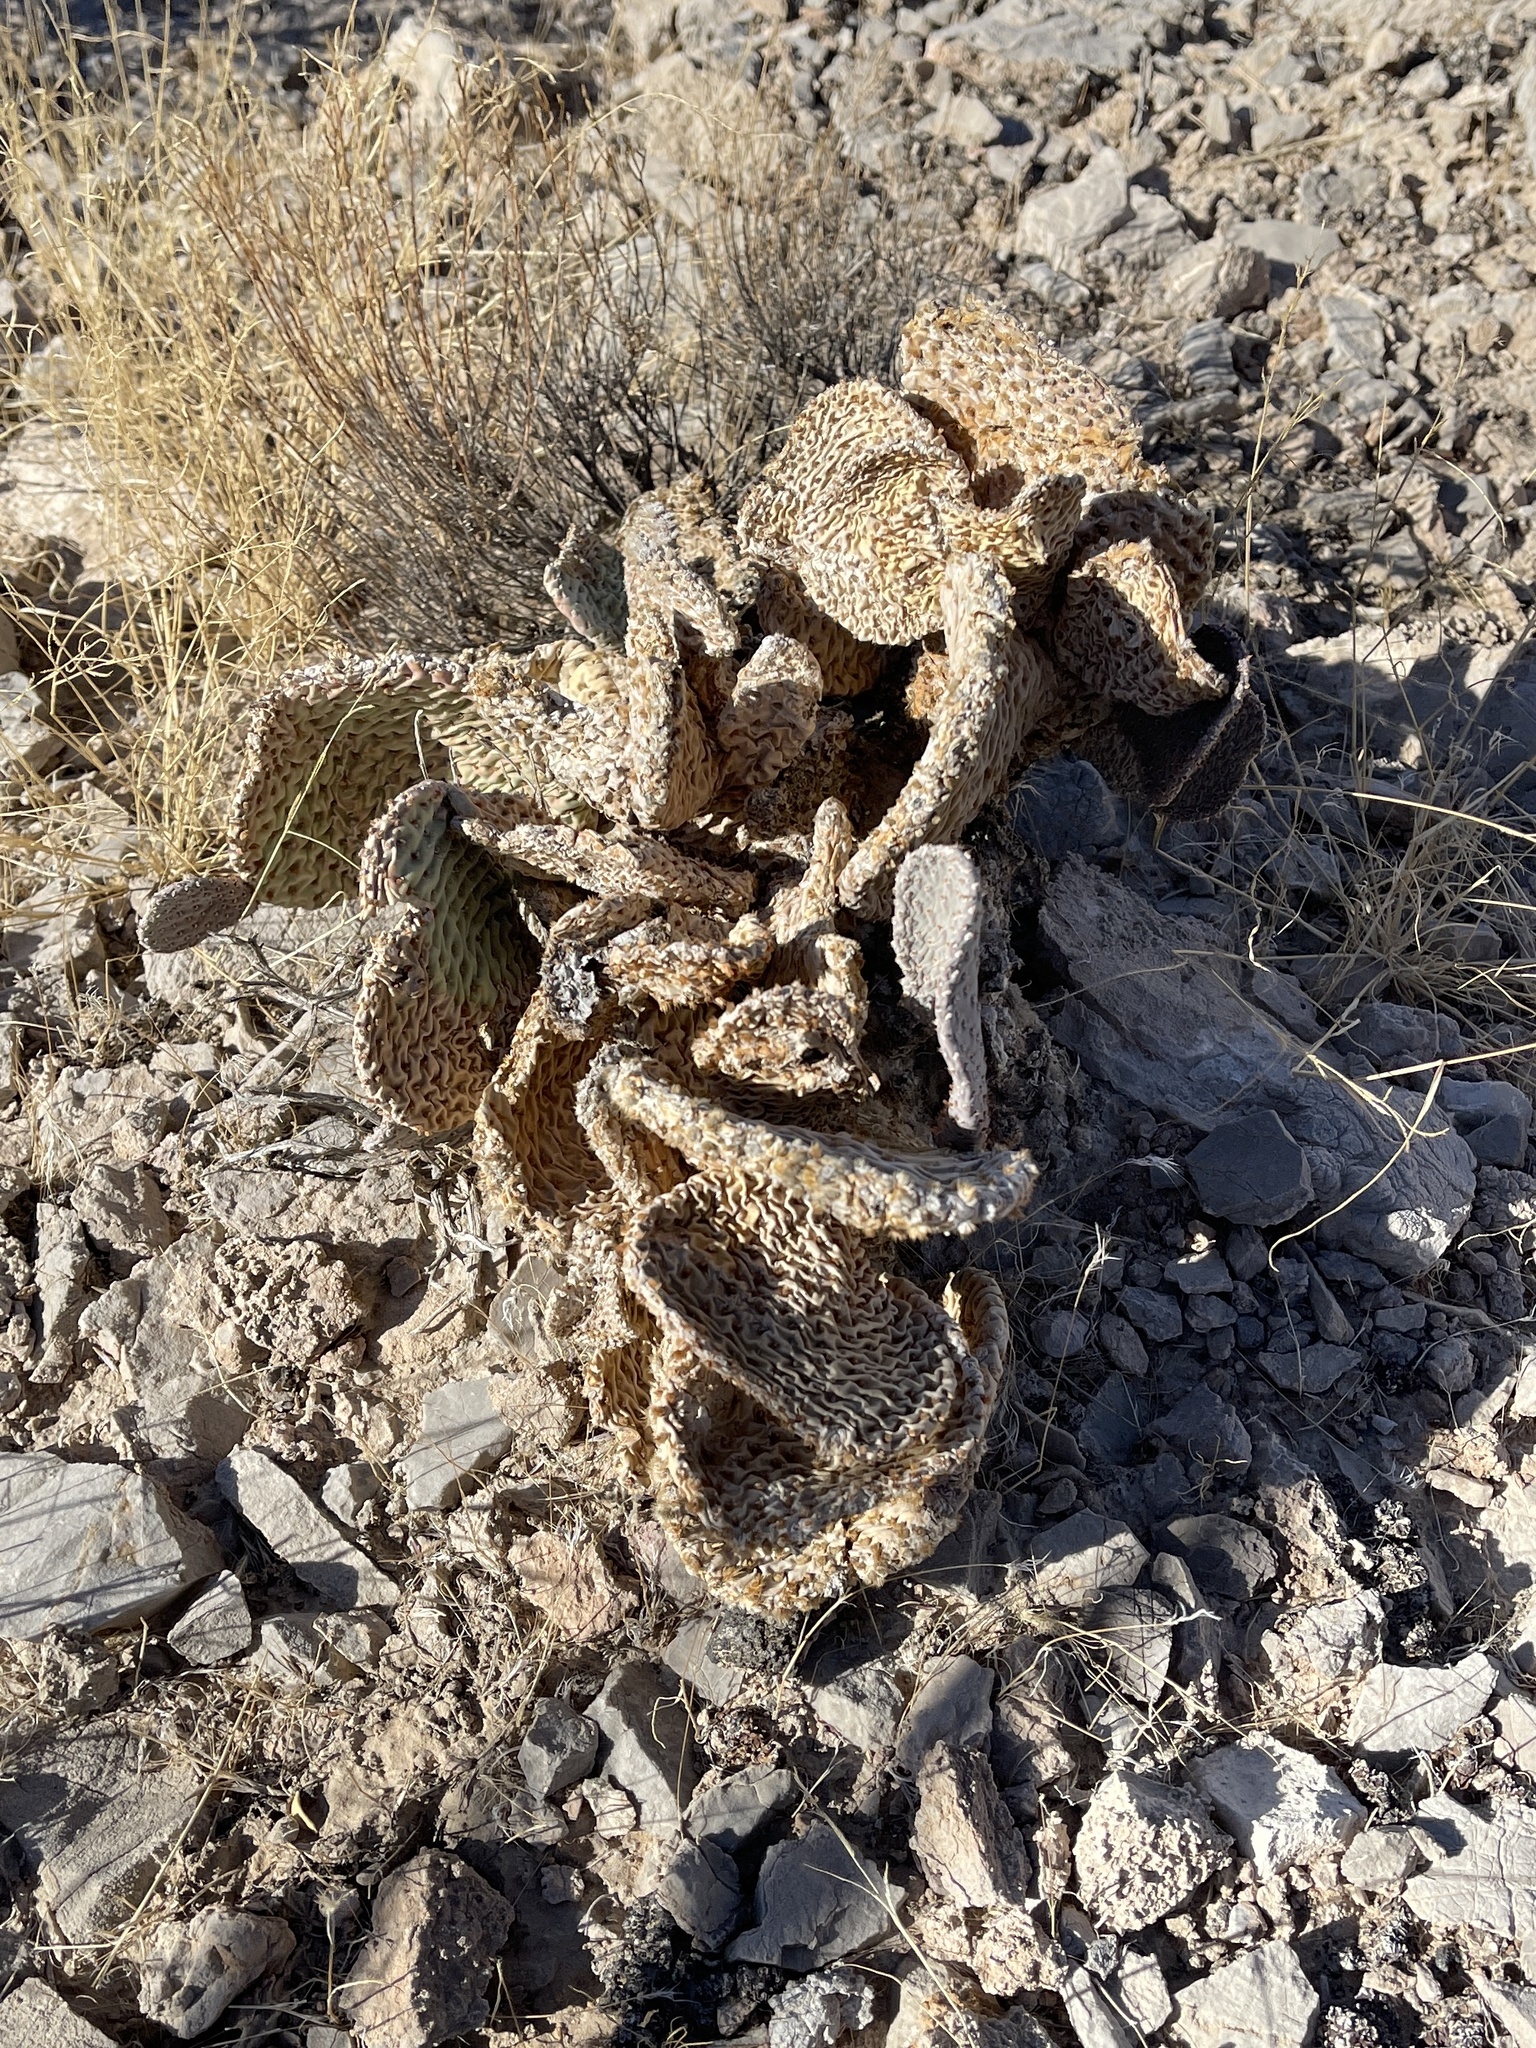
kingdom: Plantae
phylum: Tracheophyta
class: Magnoliopsida
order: Caryophyllales
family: Cactaceae
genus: Opuntia
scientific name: Opuntia basilaris
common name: Beavertail prickly-pear
